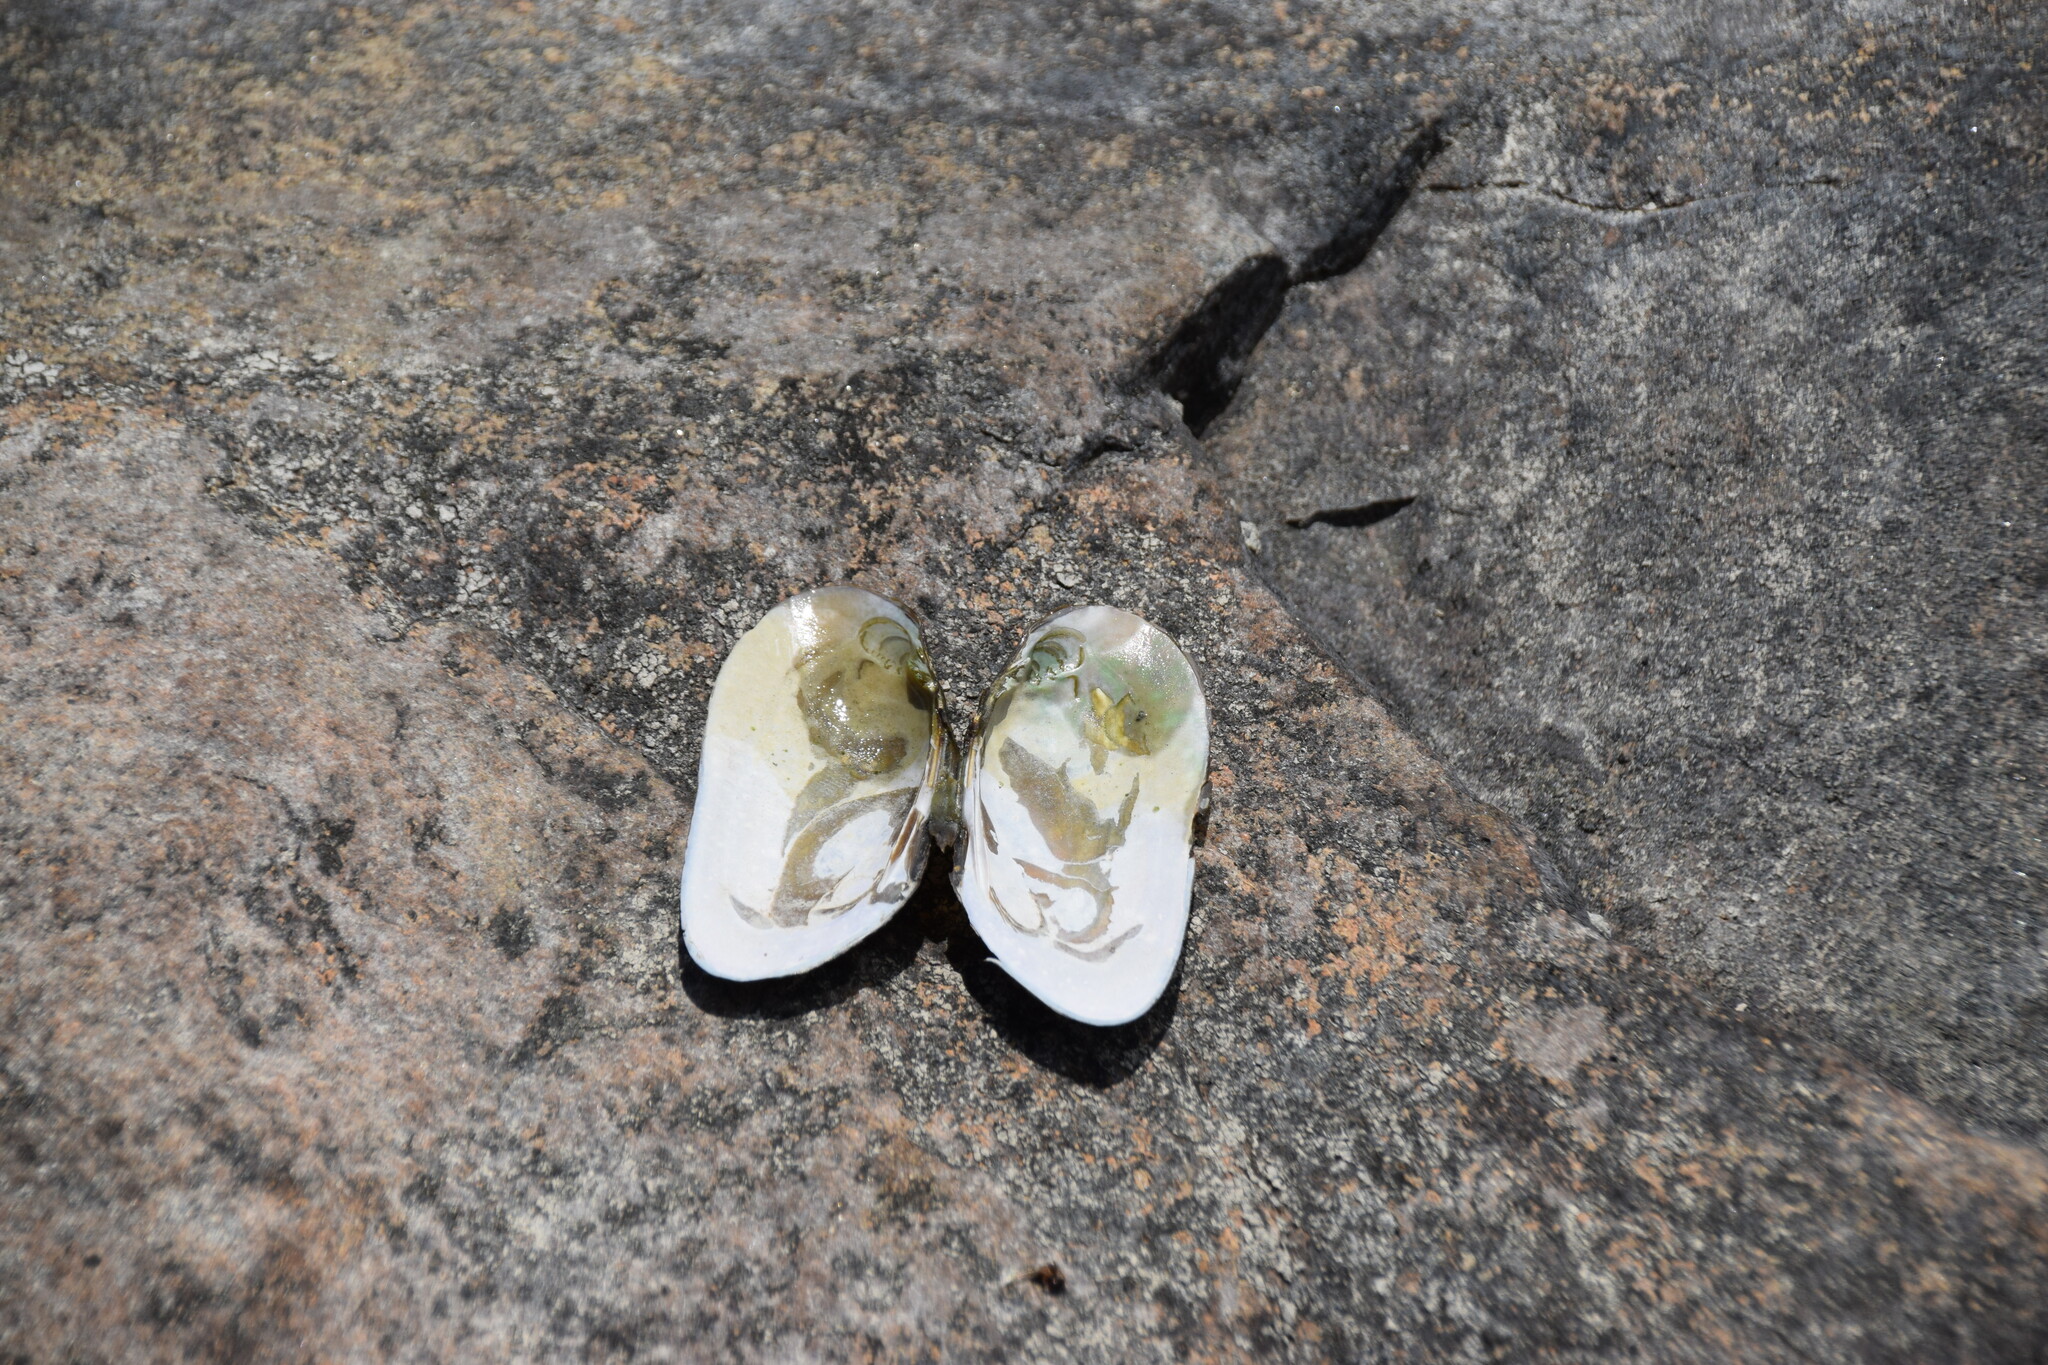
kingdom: Animalia
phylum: Mollusca
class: Bivalvia
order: Unionida
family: Unionidae
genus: Elliptio
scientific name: Elliptio complanata
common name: Eastern elliptio
